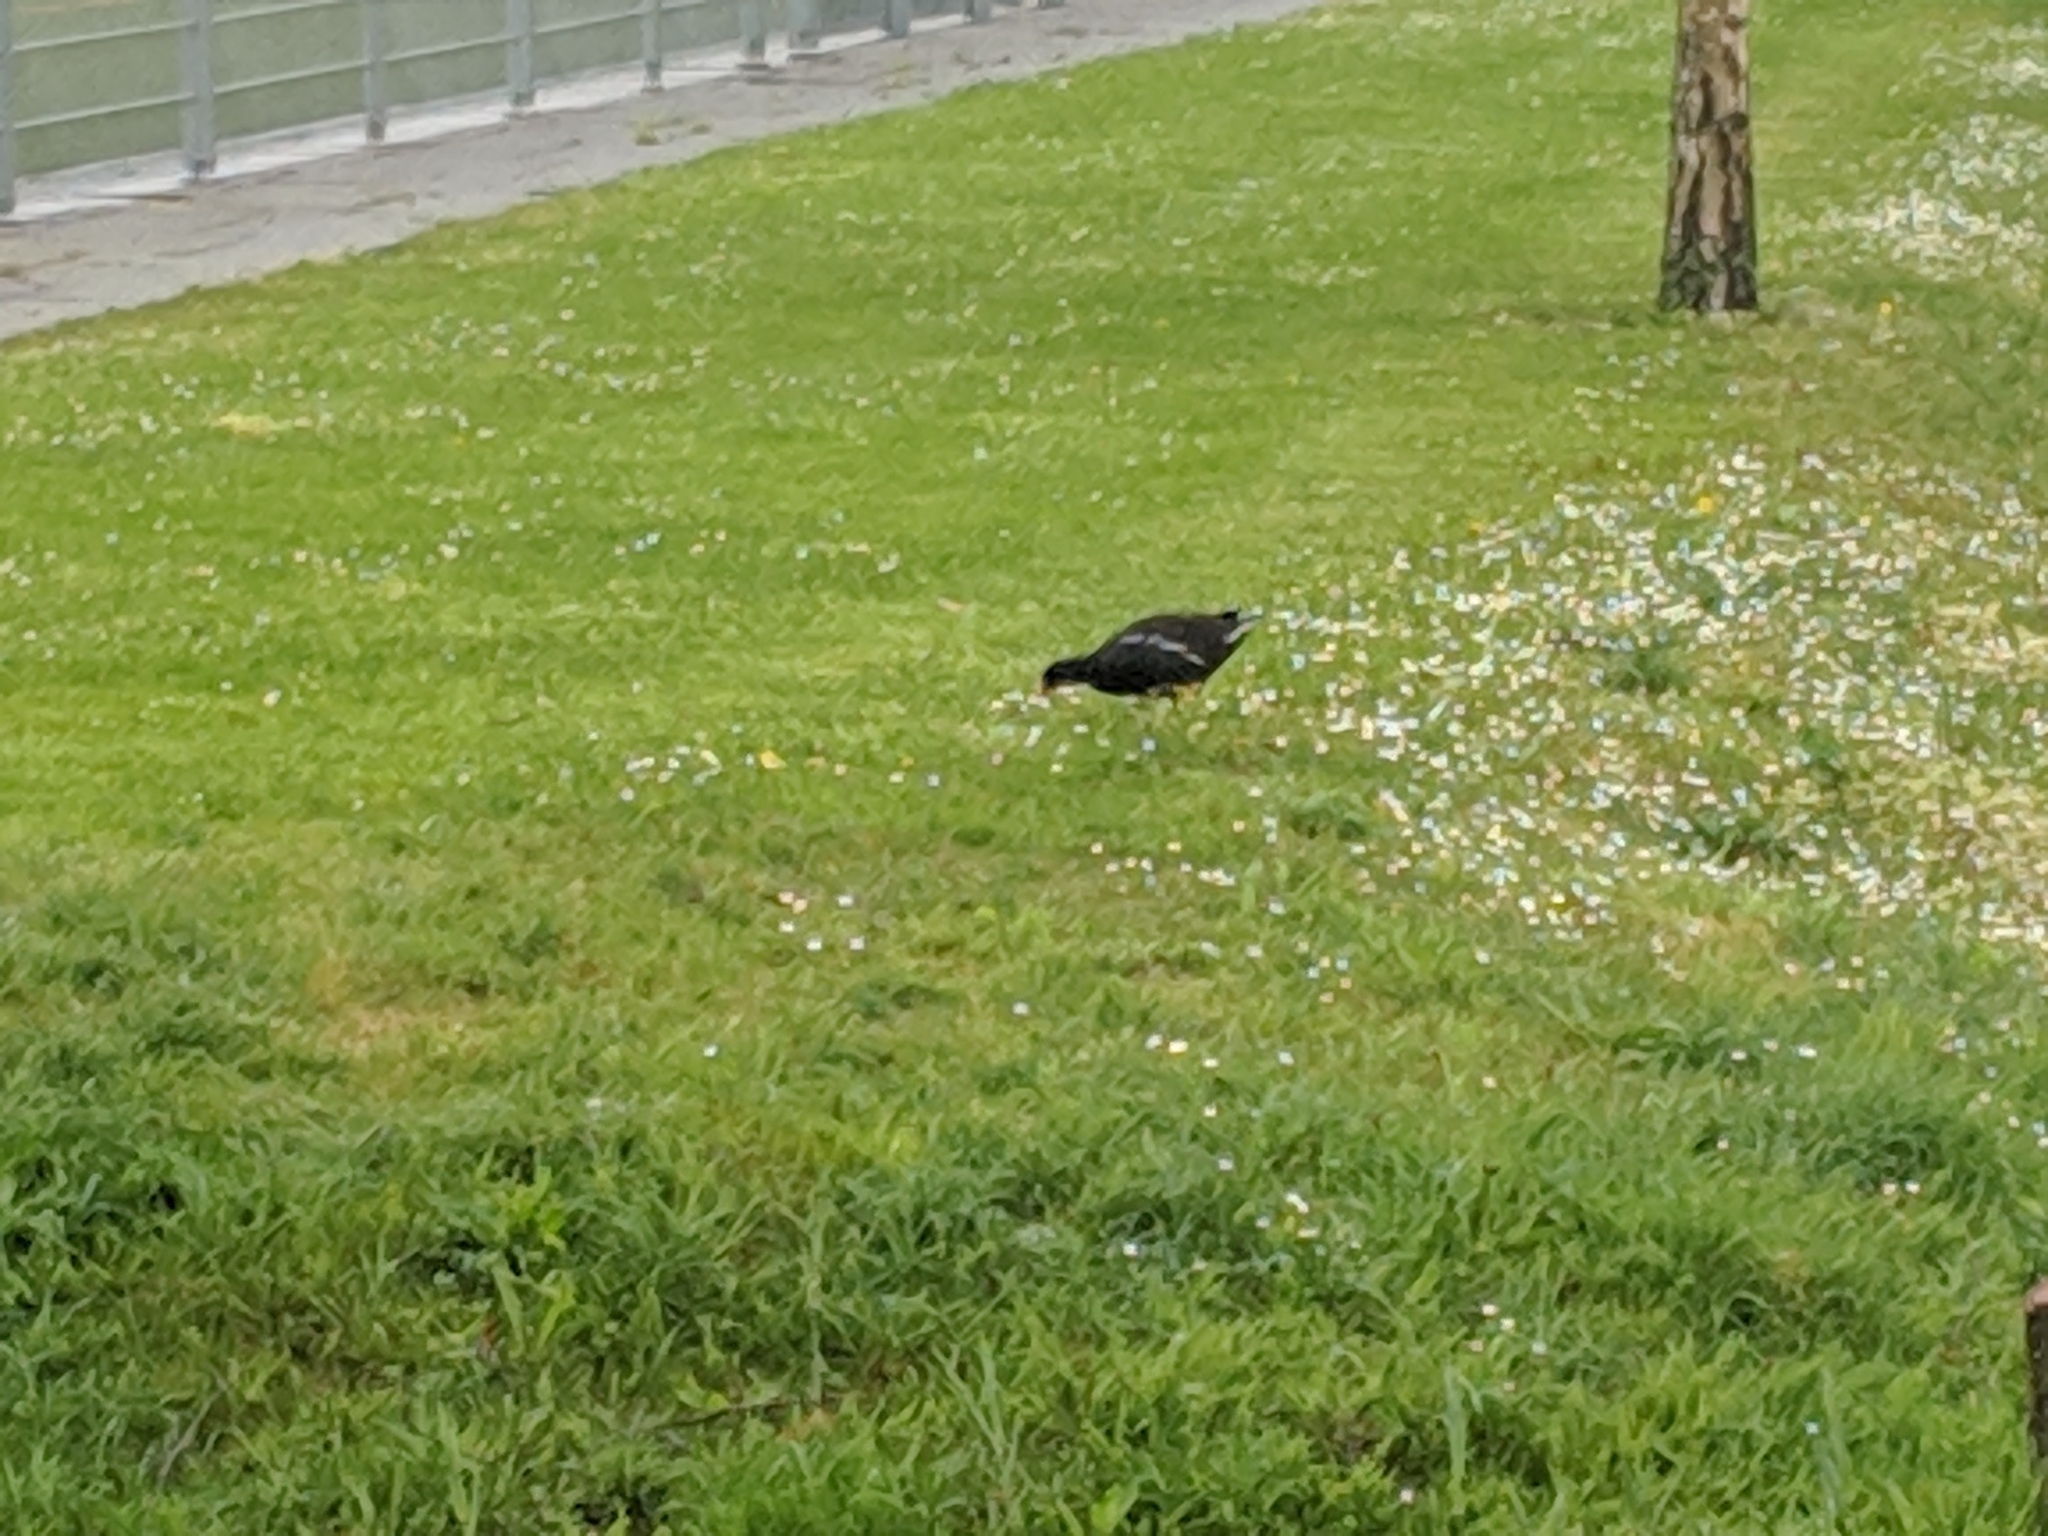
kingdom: Animalia
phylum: Chordata
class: Aves
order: Gruiformes
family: Rallidae
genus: Gallinula
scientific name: Gallinula chloropus
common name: Common moorhen
